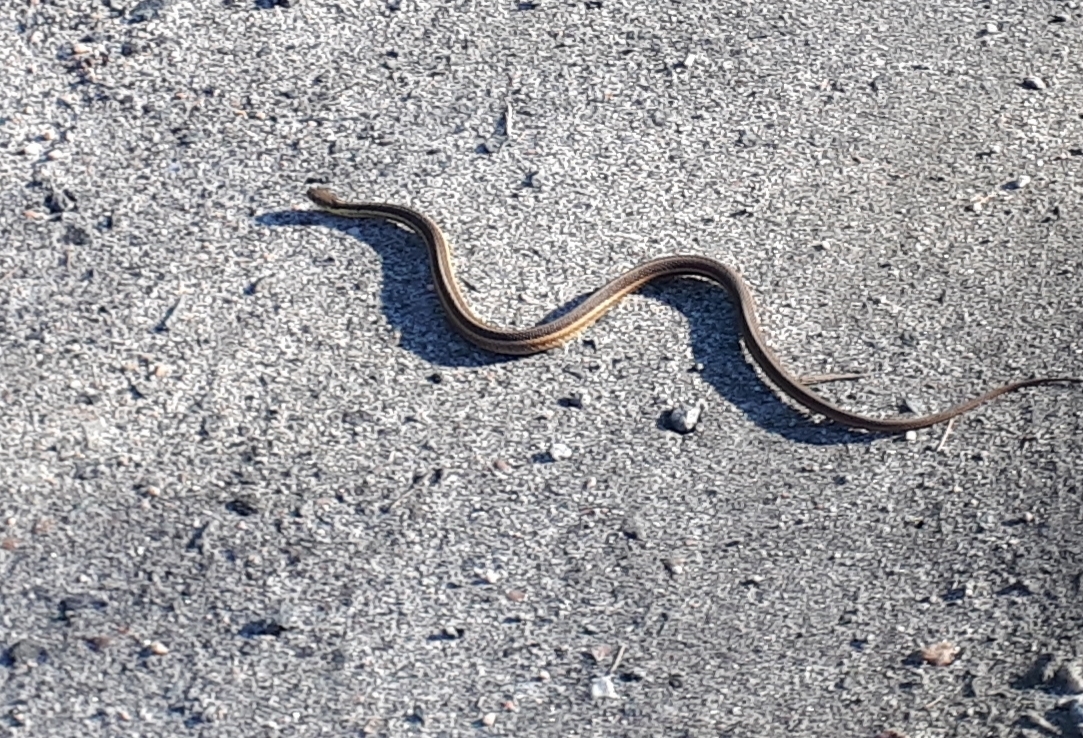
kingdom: Animalia
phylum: Chordata
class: Squamata
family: Colubridae
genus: Thamnophis
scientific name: Thamnophis sirtalis
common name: Common garter snake
